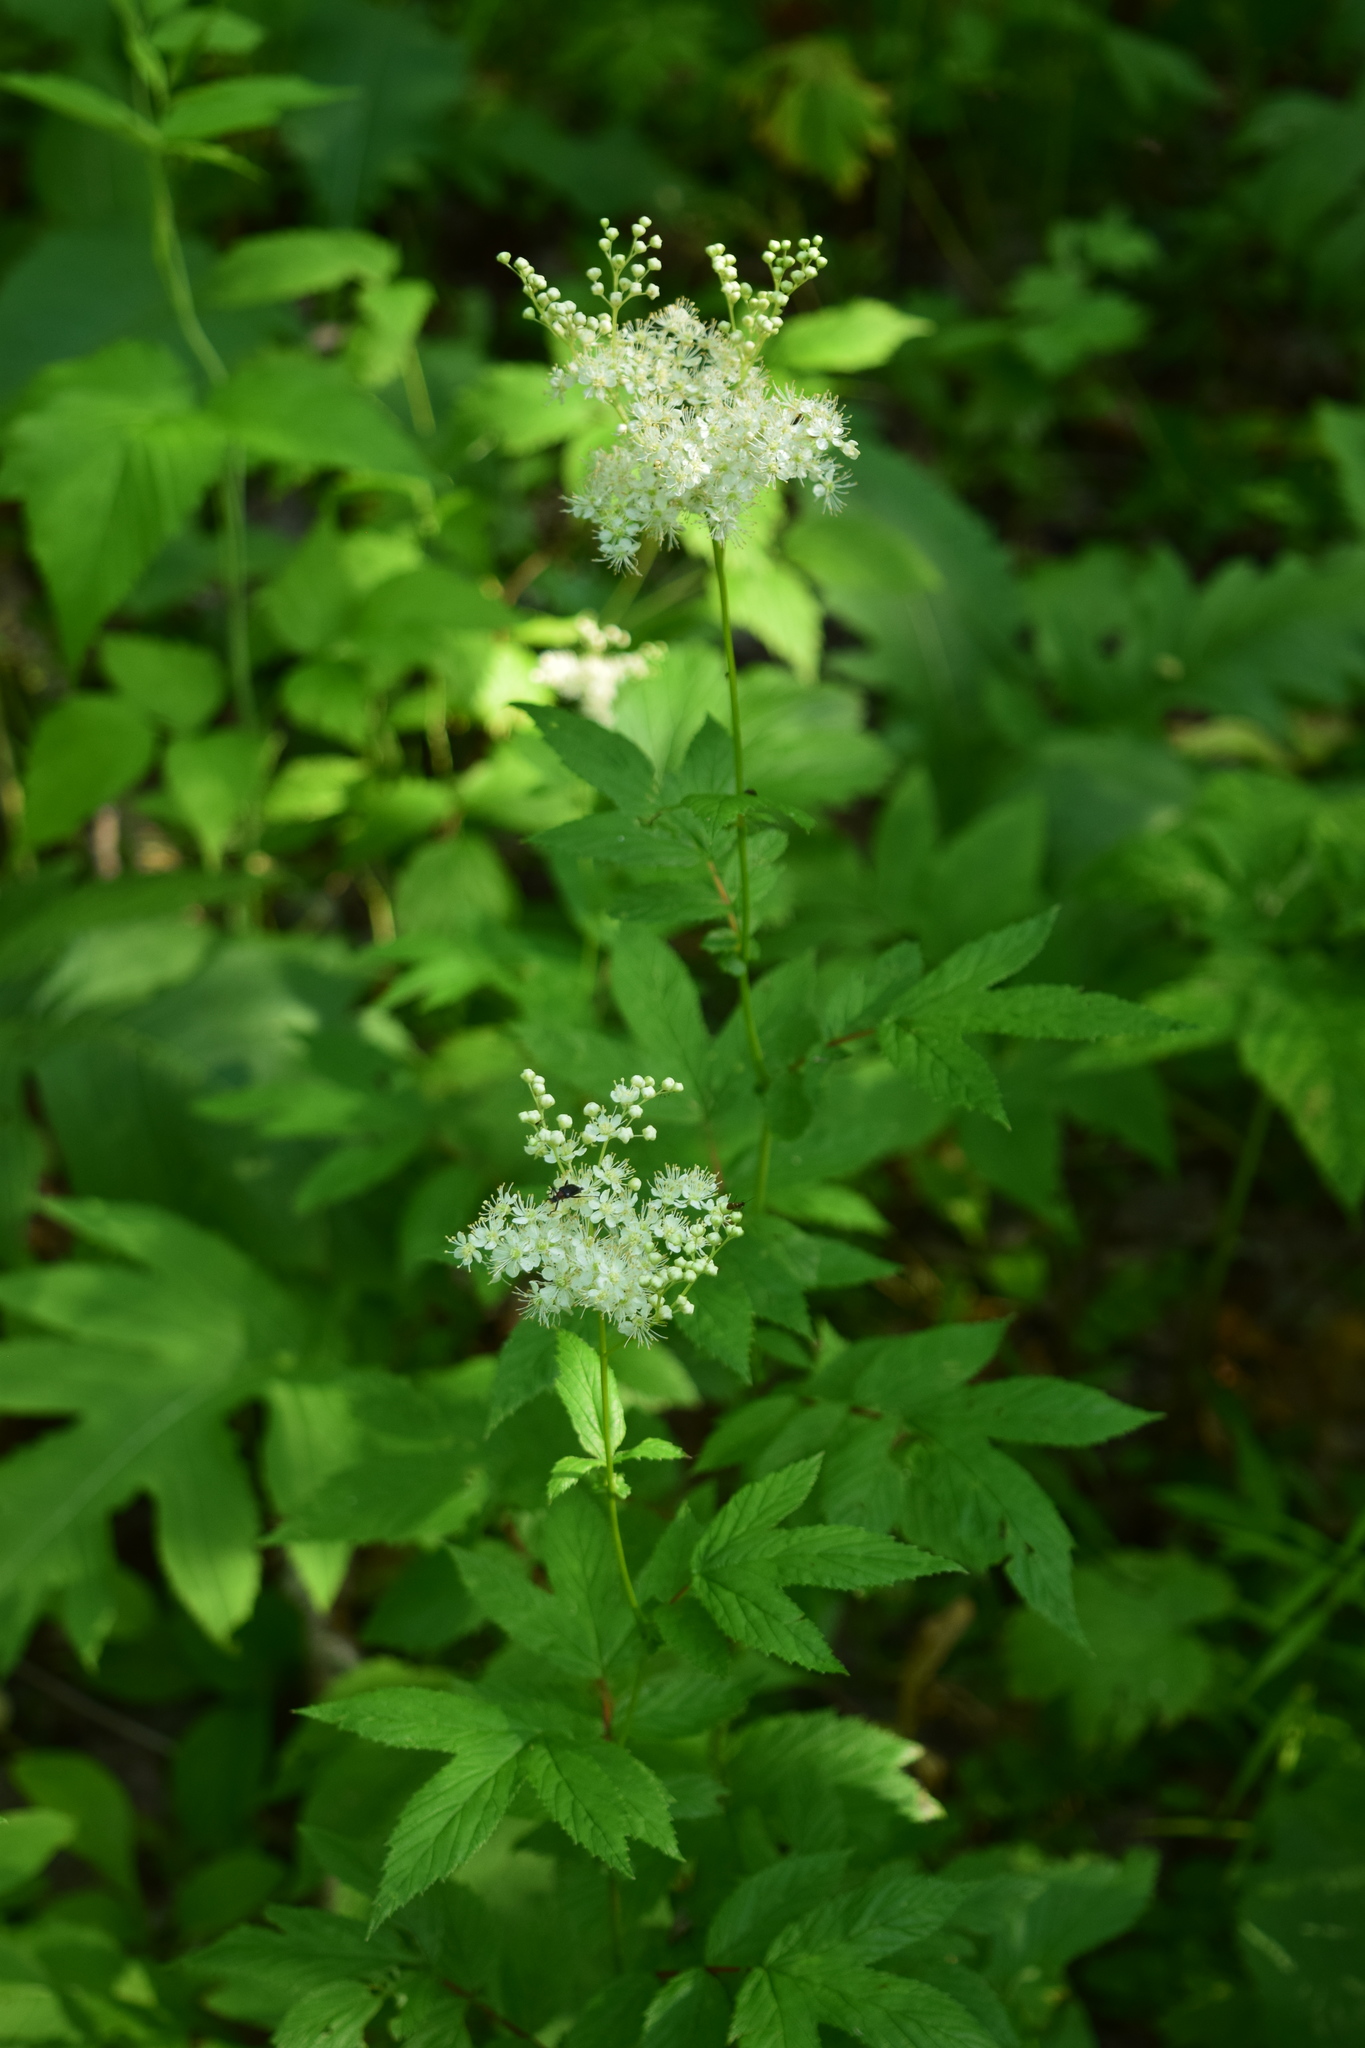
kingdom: Plantae
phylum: Tracheophyta
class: Magnoliopsida
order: Rosales
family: Rosaceae
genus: Filipendula
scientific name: Filipendula ulmaria
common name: Meadowsweet
